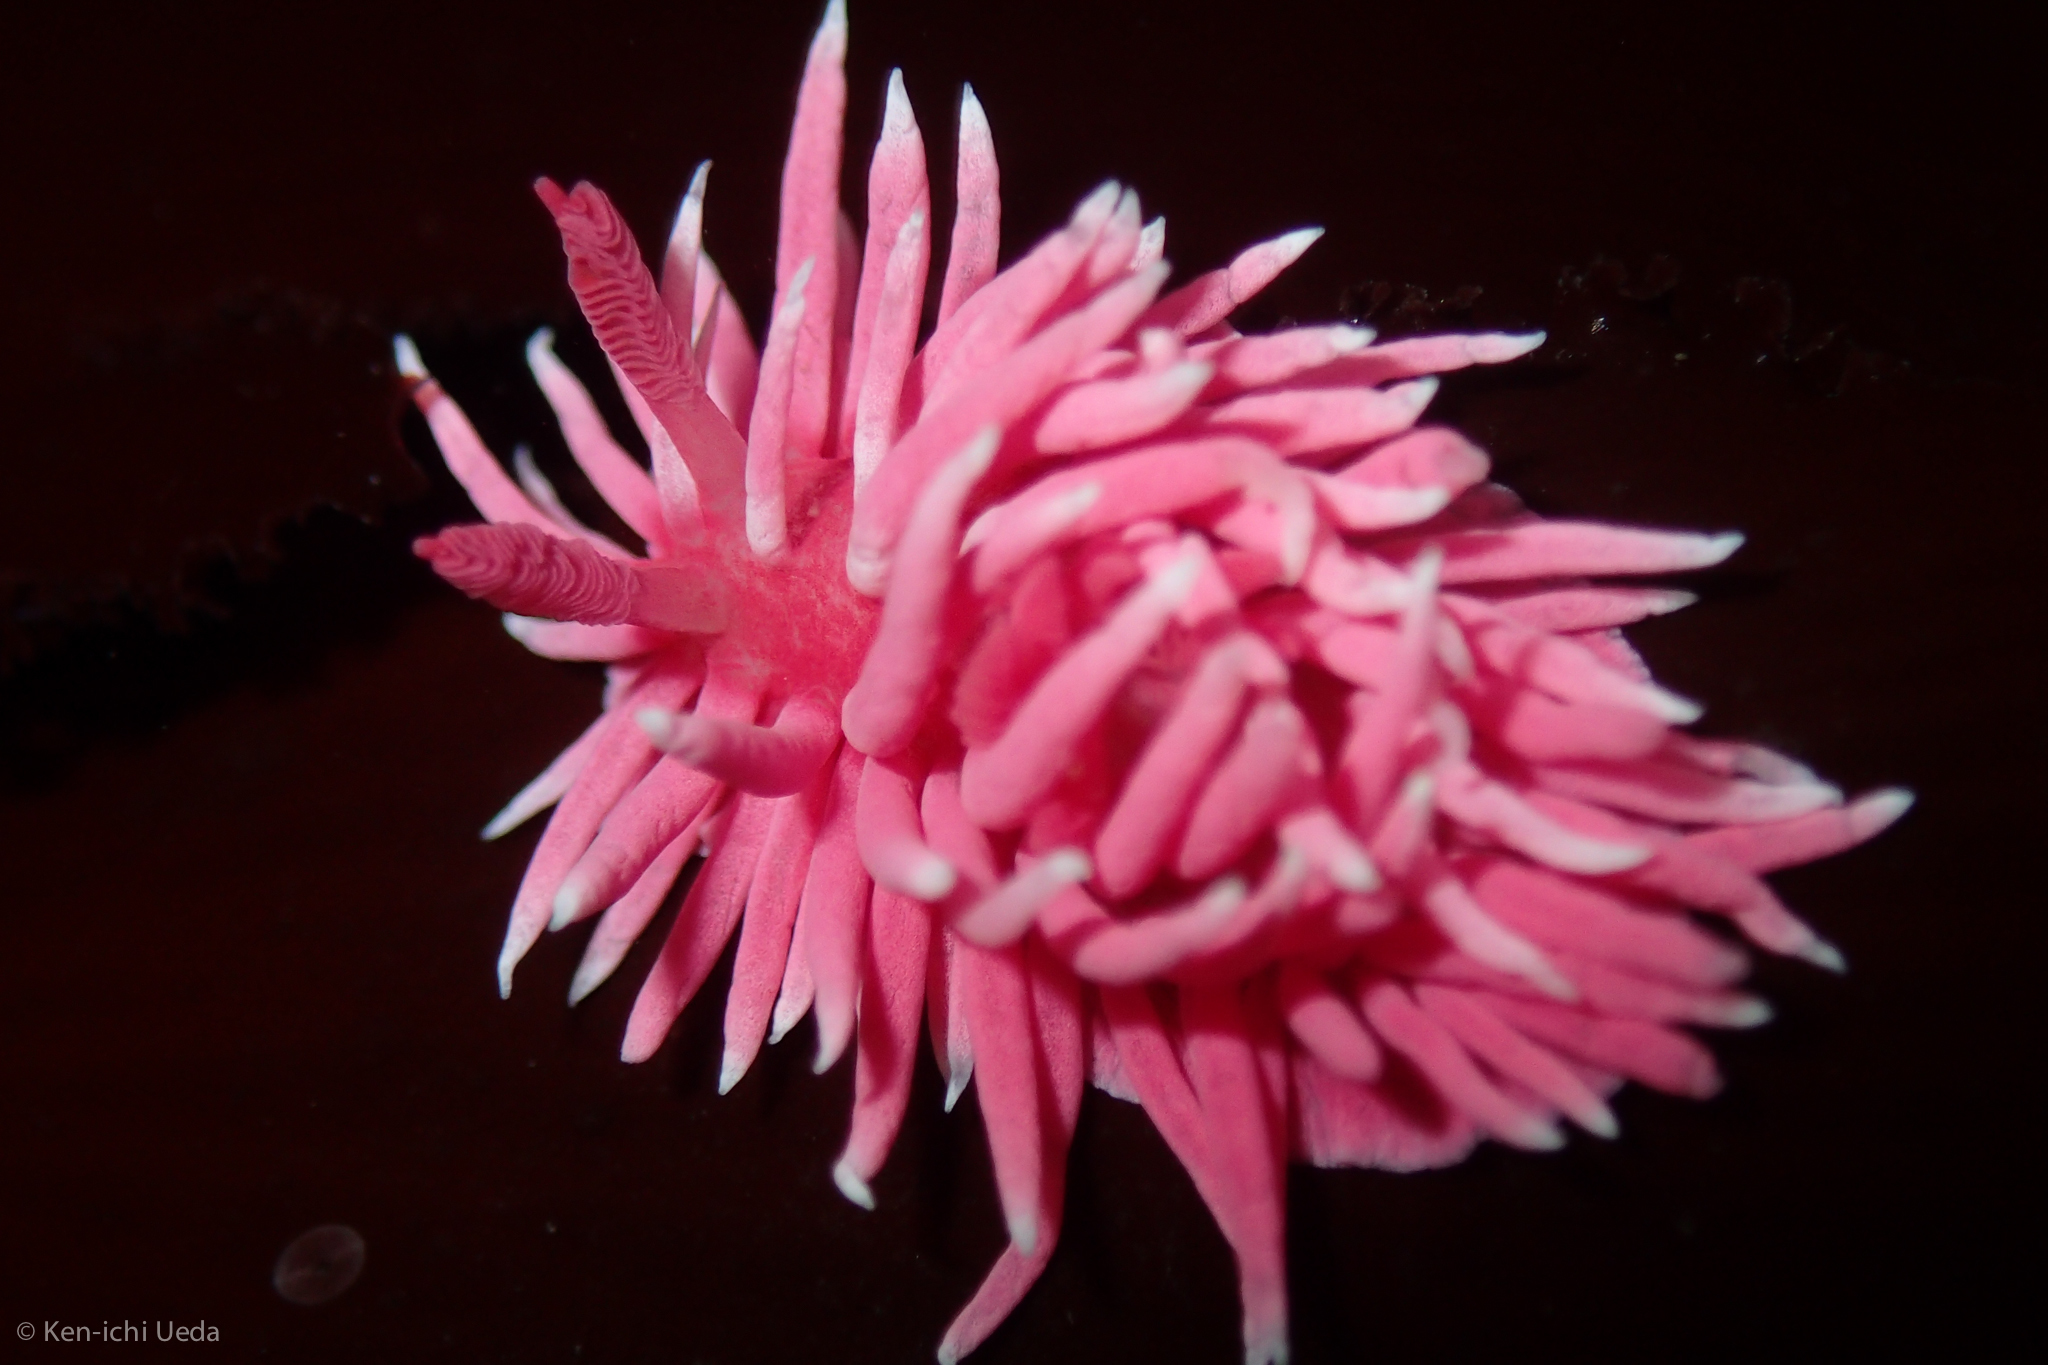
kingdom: Animalia
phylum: Mollusca
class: Gastropoda
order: Nudibranchia
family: Goniodorididae
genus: Okenia
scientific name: Okenia
